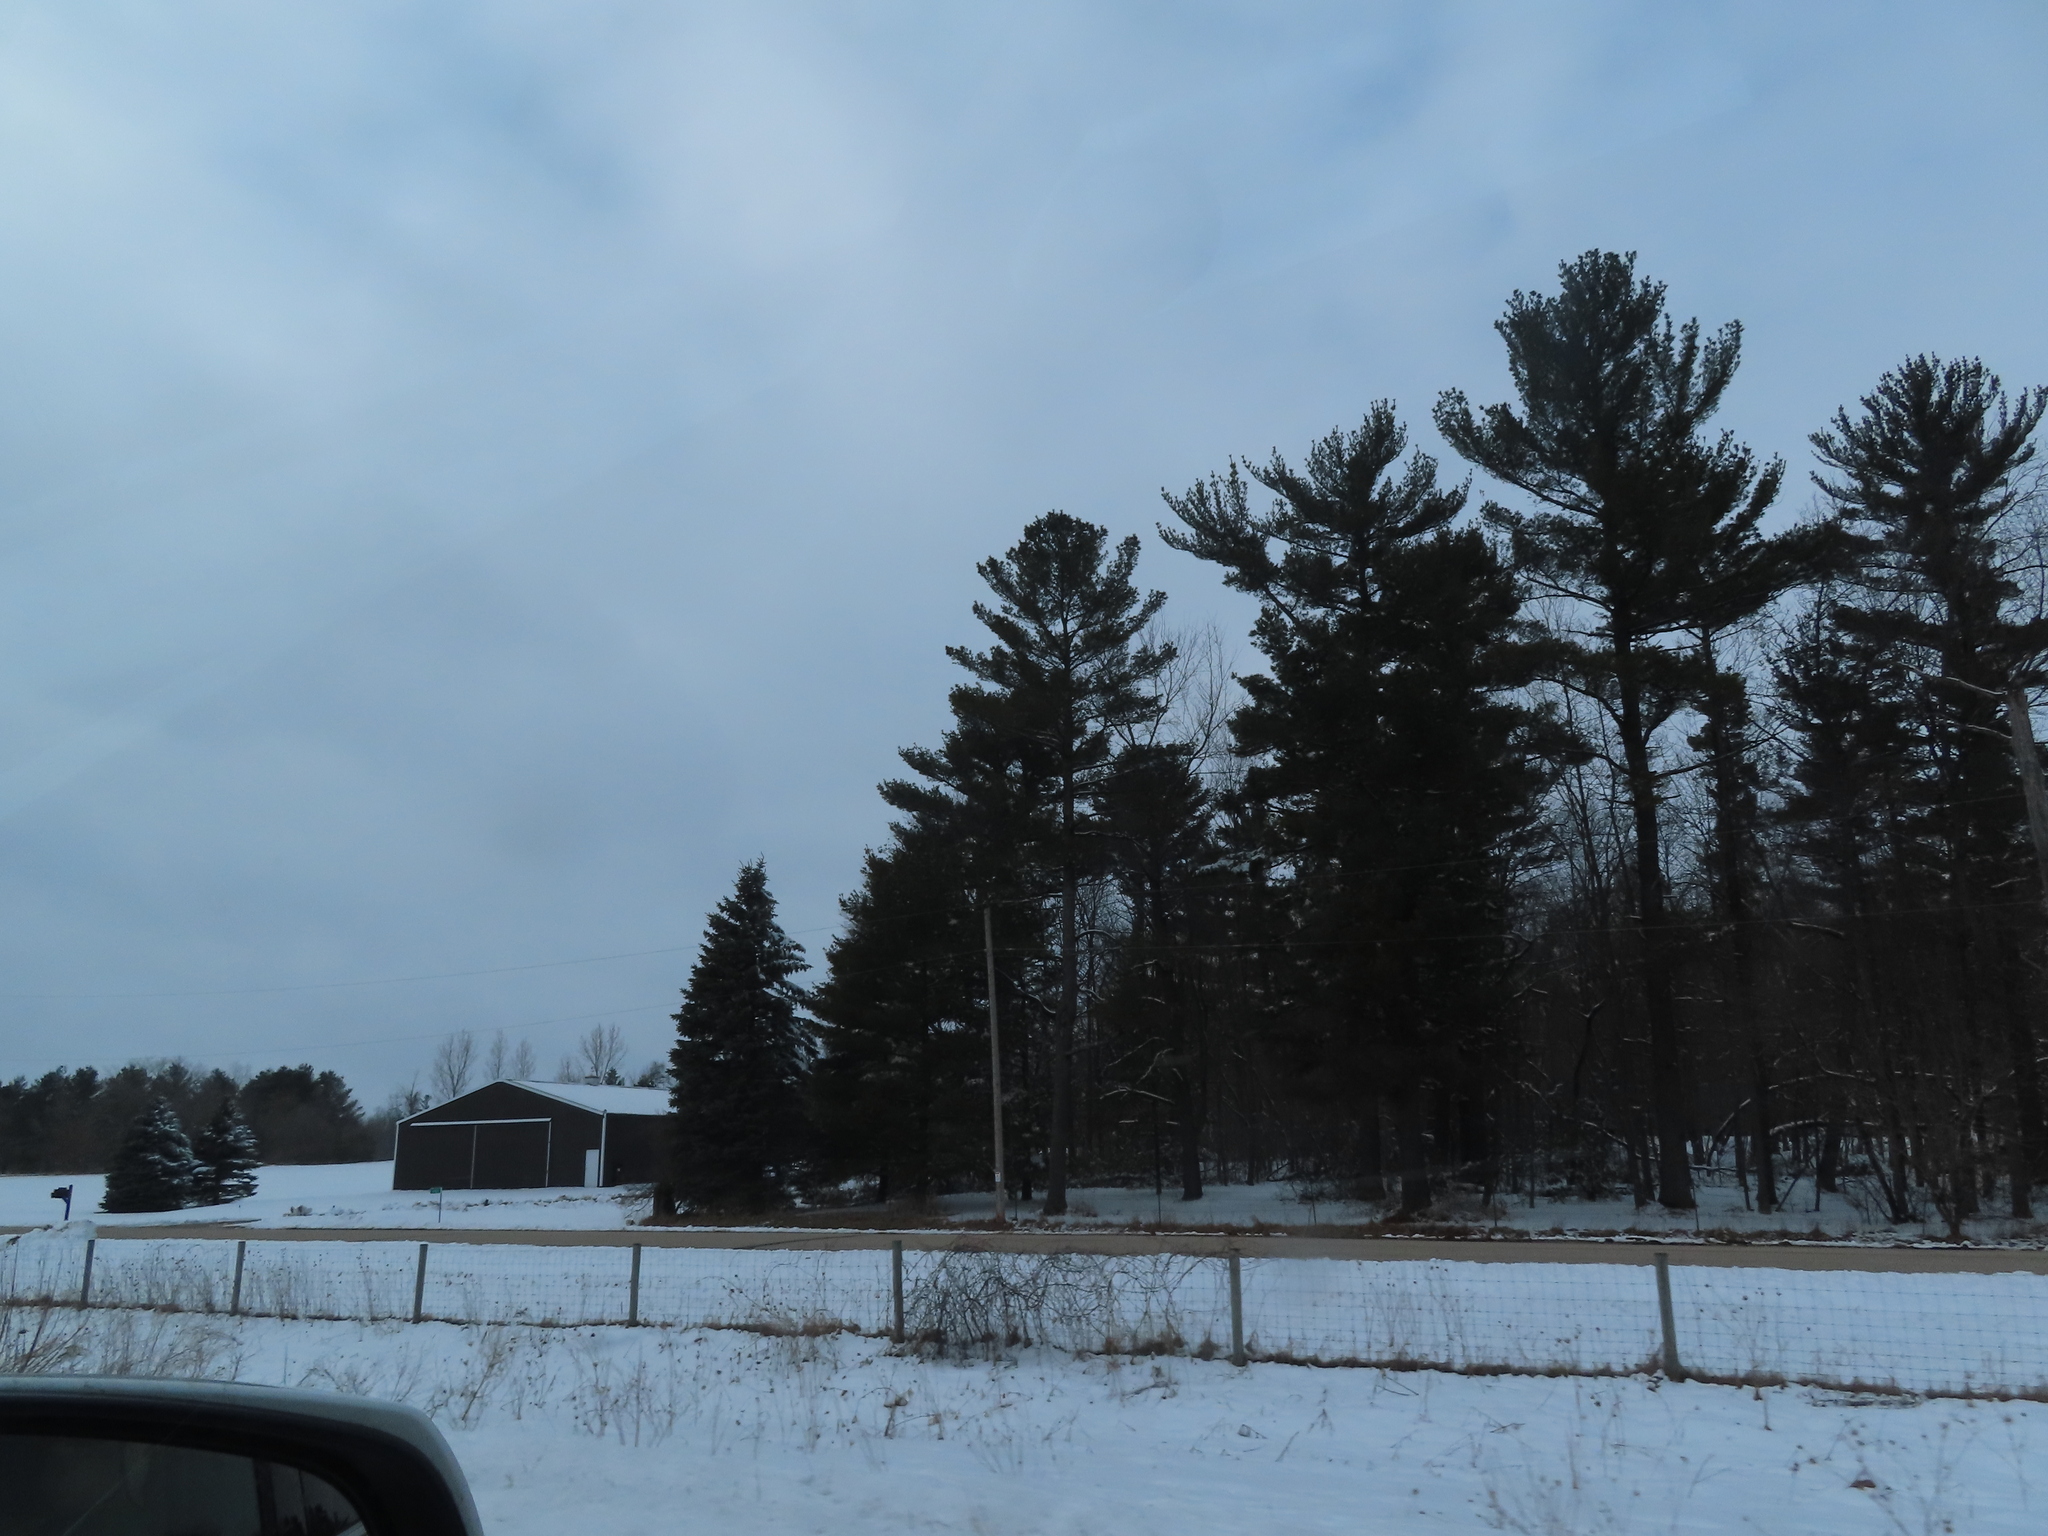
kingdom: Plantae
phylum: Tracheophyta
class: Pinopsida
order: Pinales
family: Pinaceae
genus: Pinus
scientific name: Pinus strobus
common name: Weymouth pine
